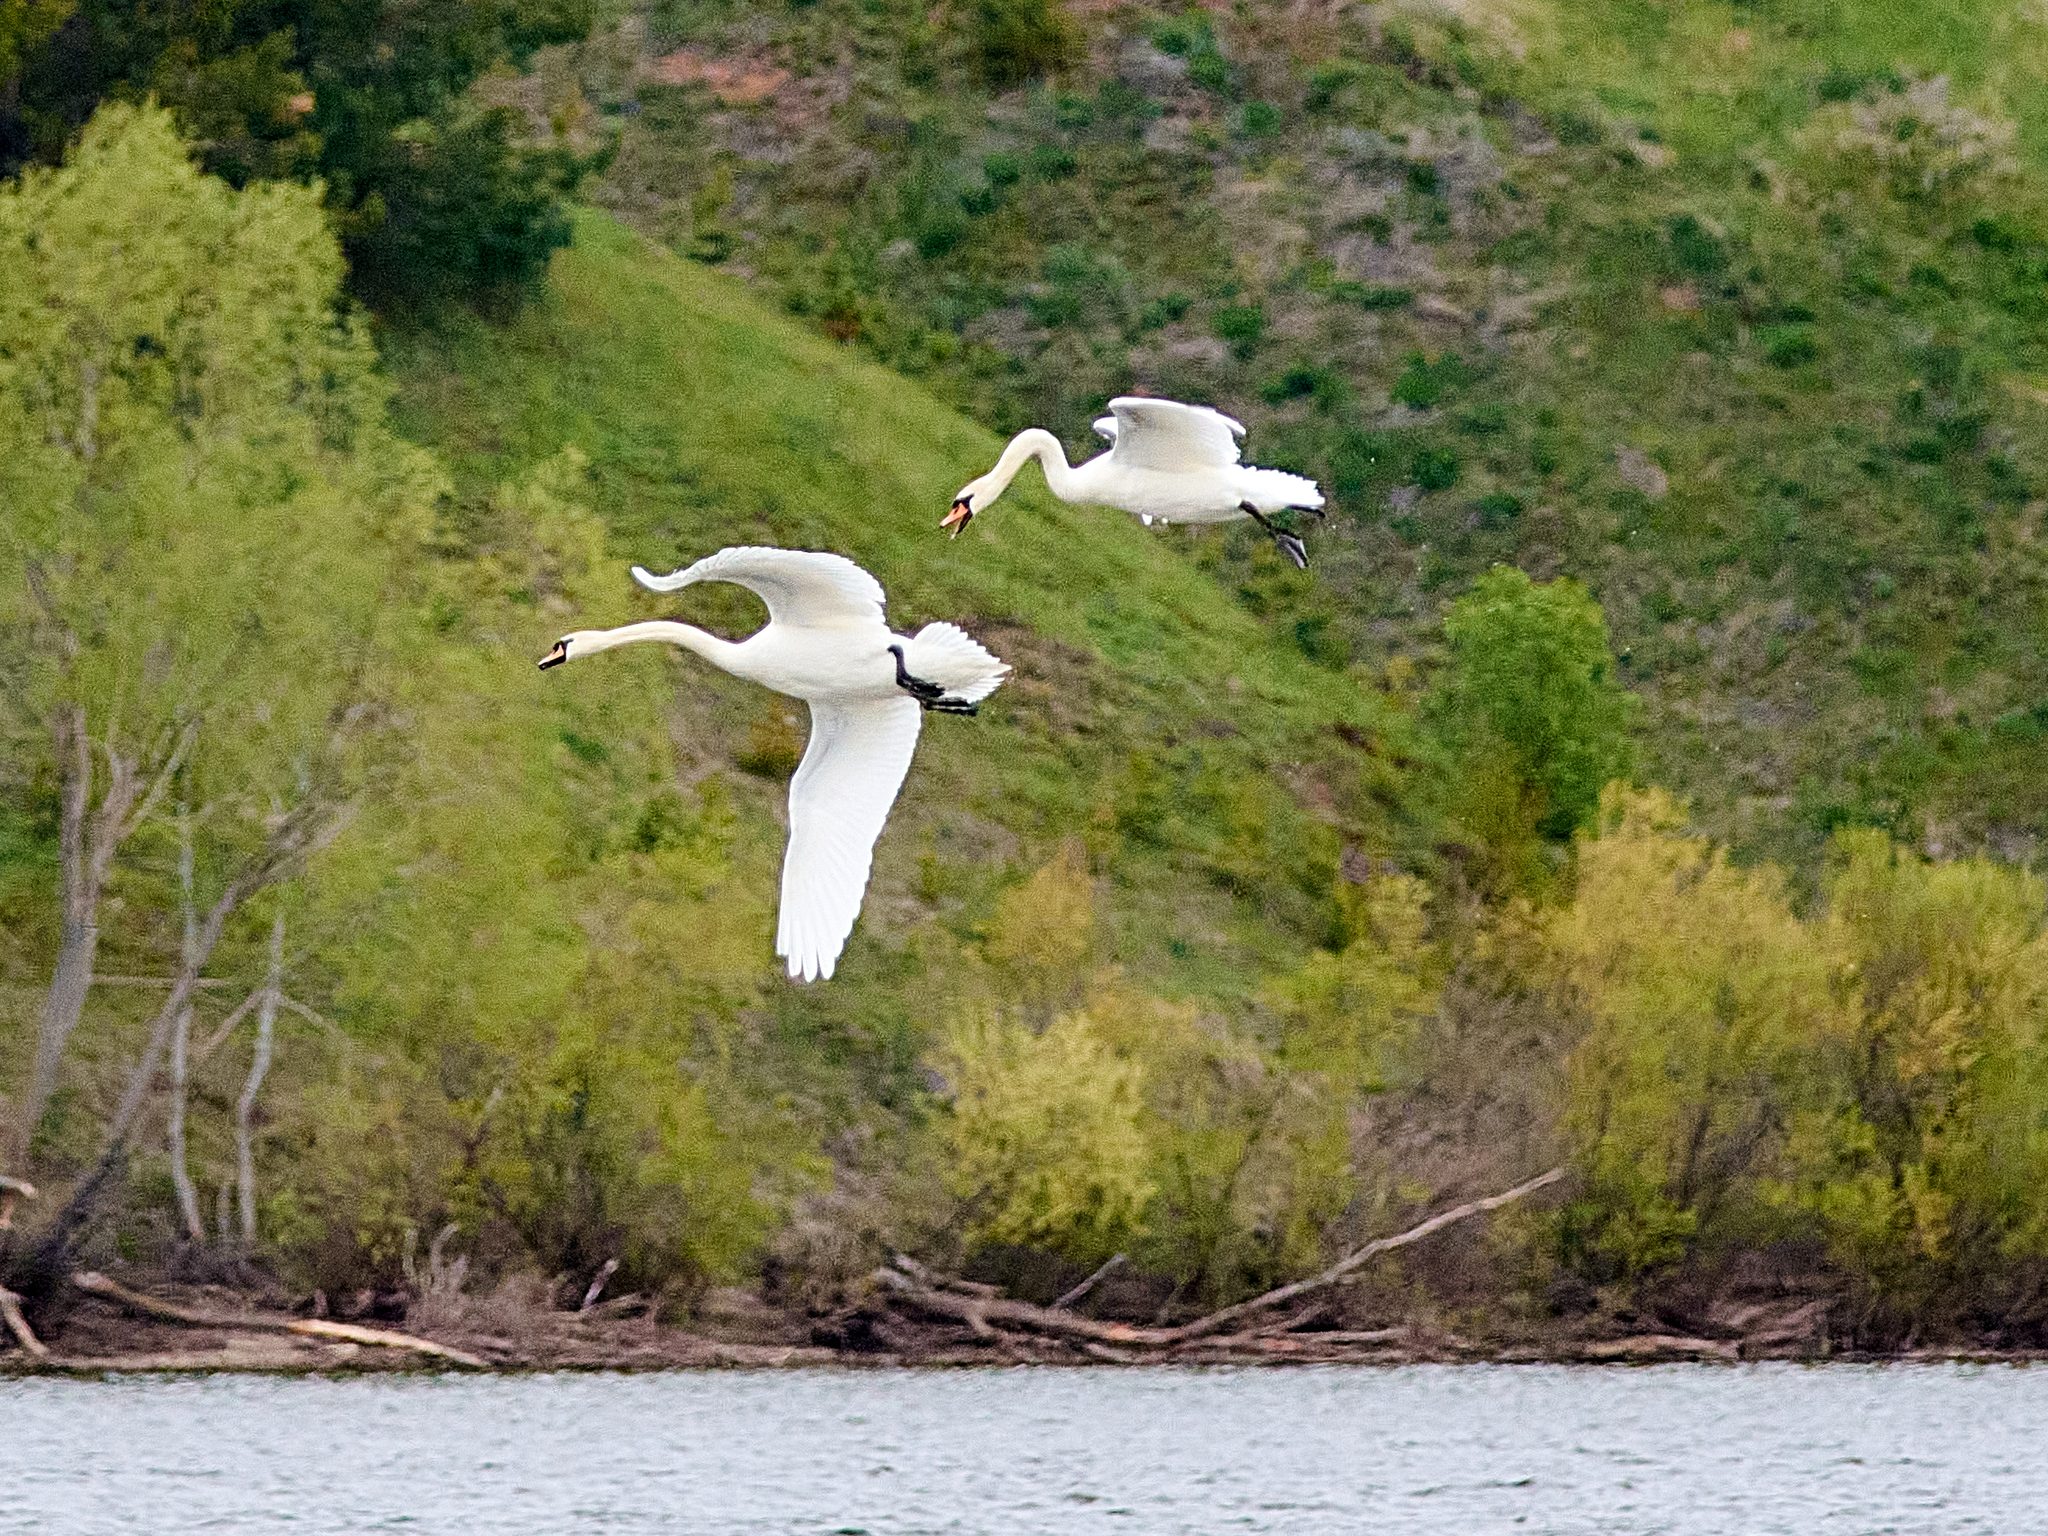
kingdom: Animalia
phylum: Chordata
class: Aves
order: Anseriformes
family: Anatidae
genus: Cygnus
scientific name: Cygnus olor
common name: Mute swan
